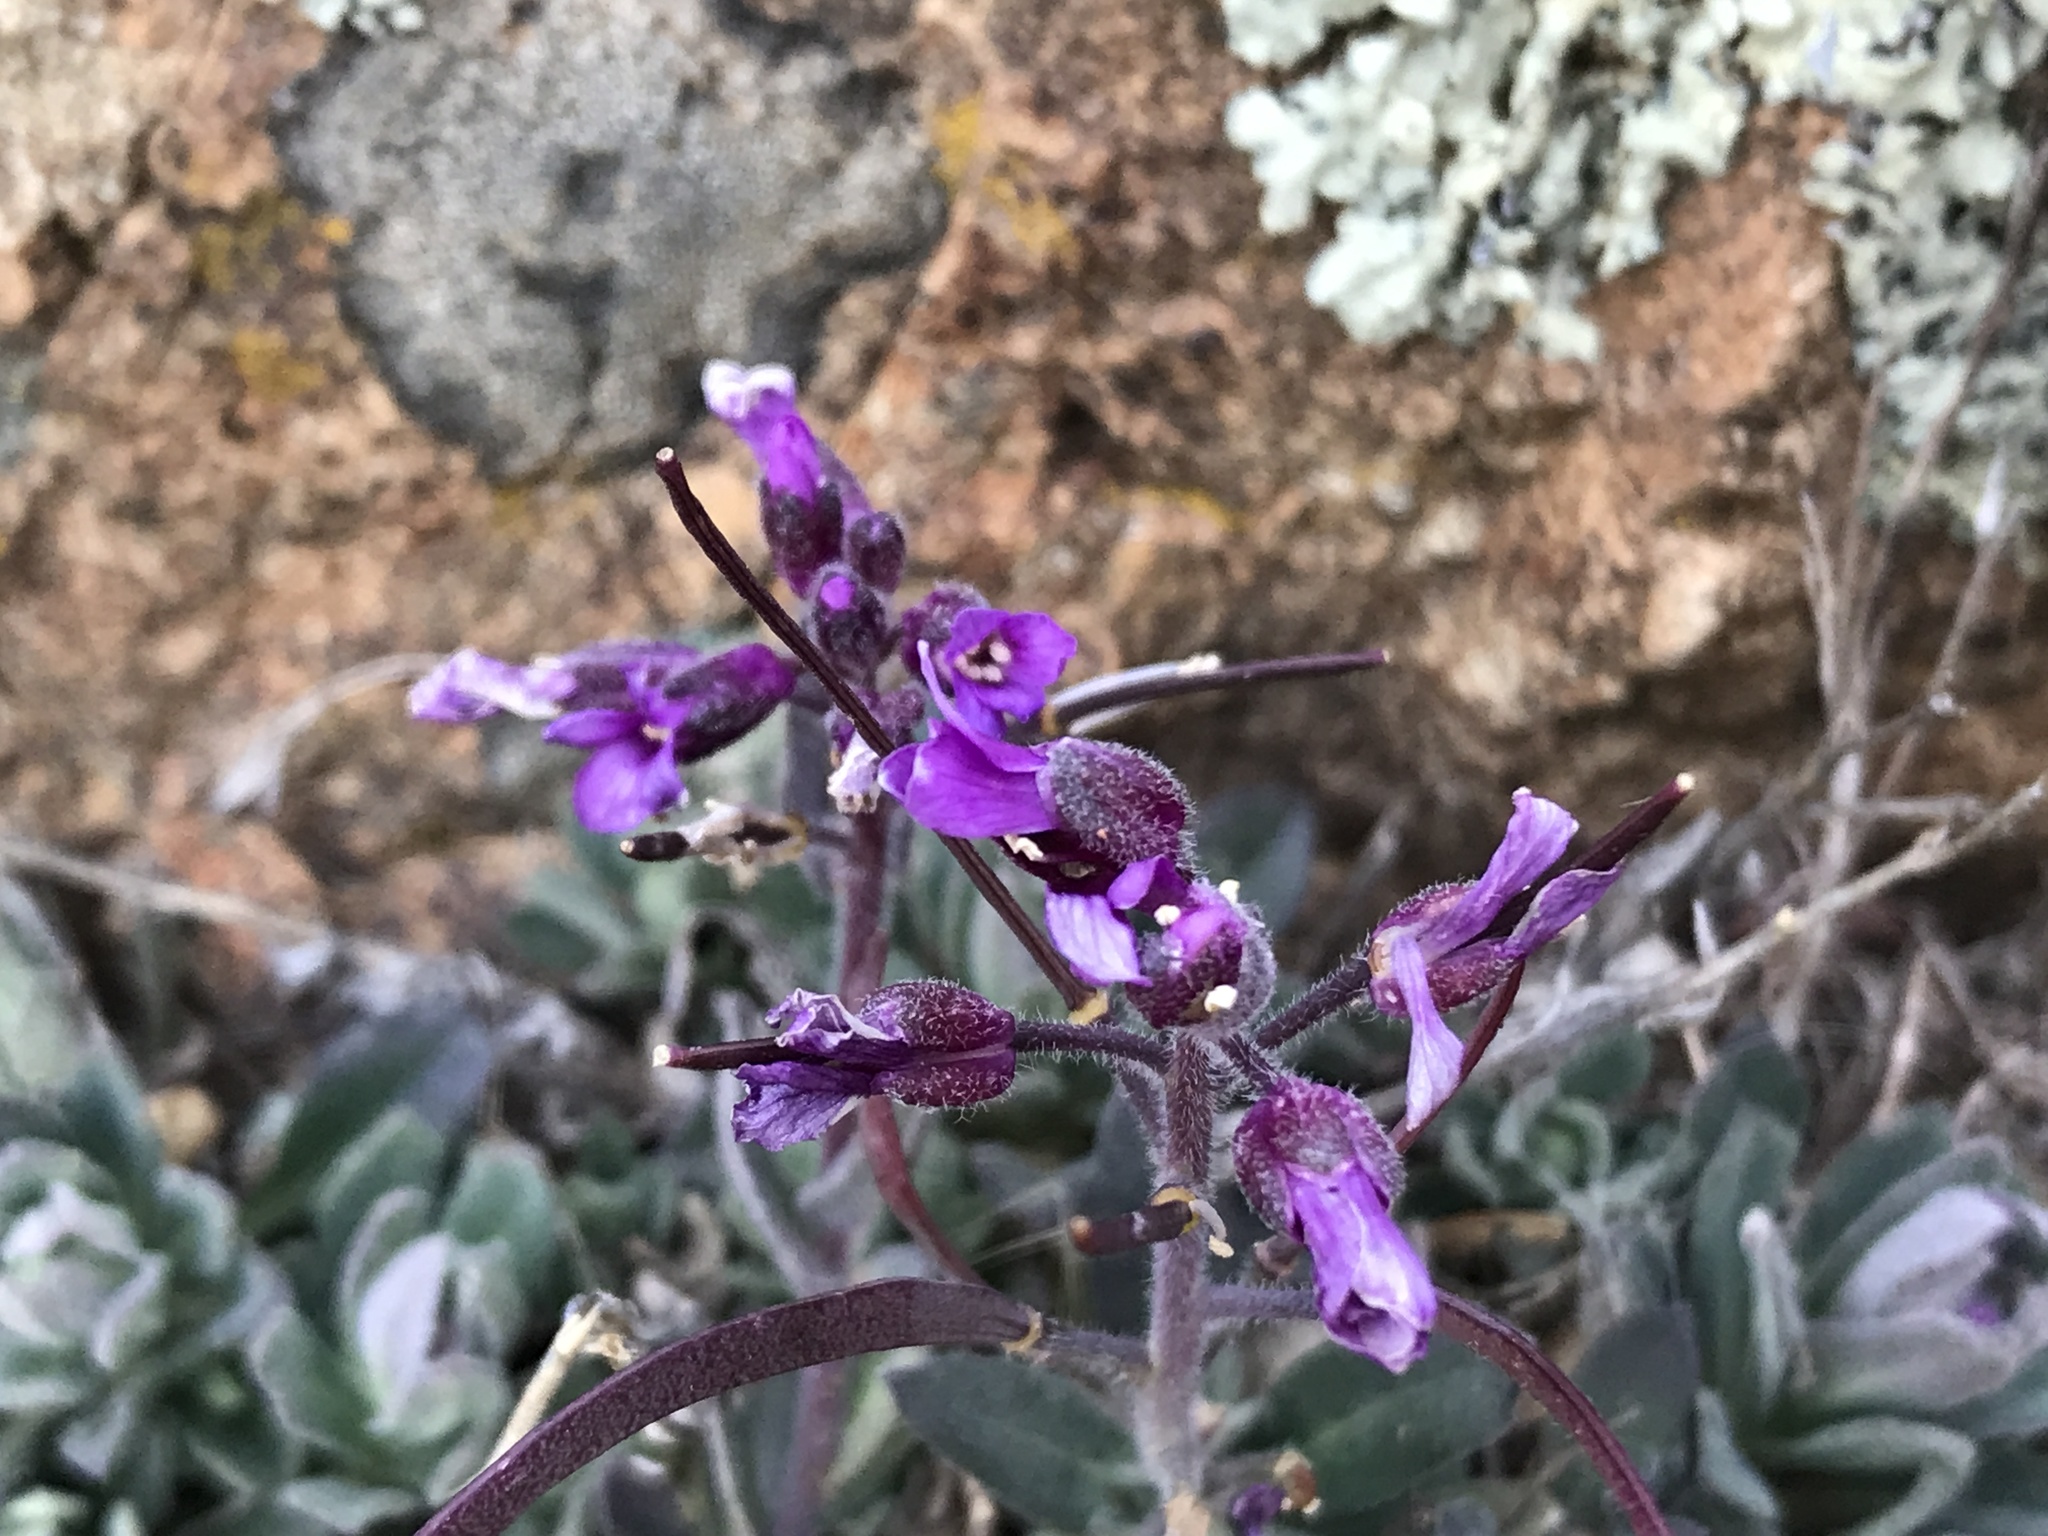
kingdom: Plantae
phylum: Tracheophyta
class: Magnoliopsida
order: Brassicales
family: Brassicaceae
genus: Boechera
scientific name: Boechera breweri
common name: Brewer's rockcress
